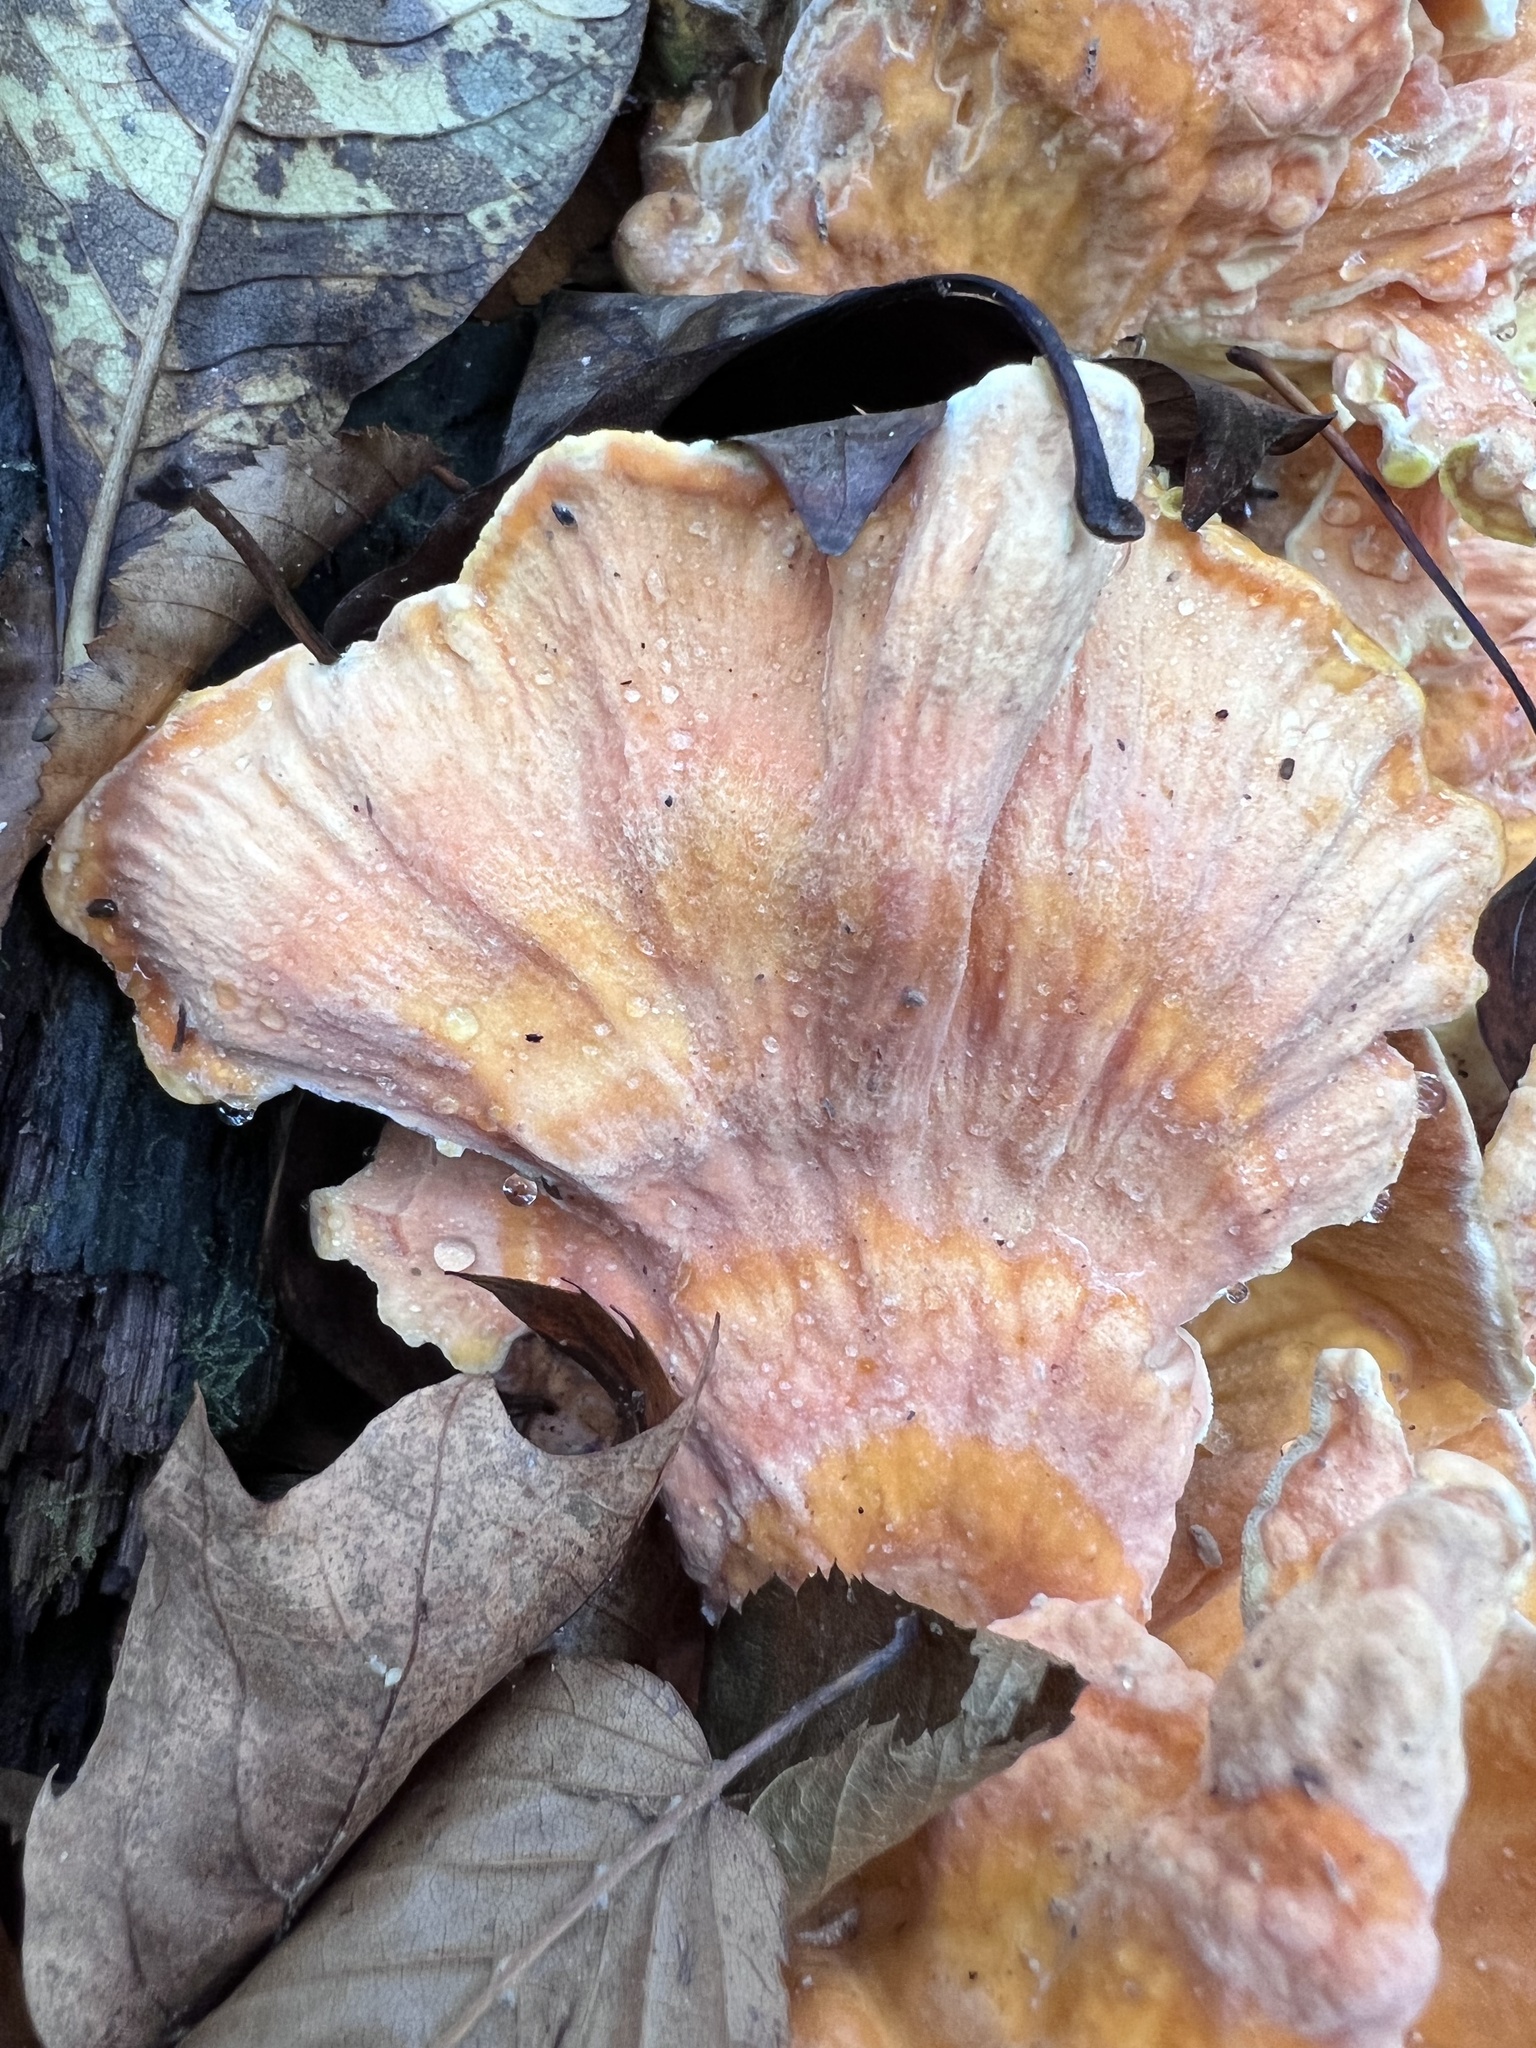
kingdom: Fungi
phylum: Basidiomycota
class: Agaricomycetes
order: Polyporales
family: Laetiporaceae
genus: Laetiporus
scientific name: Laetiporus sulphureus
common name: Chicken of the woods
